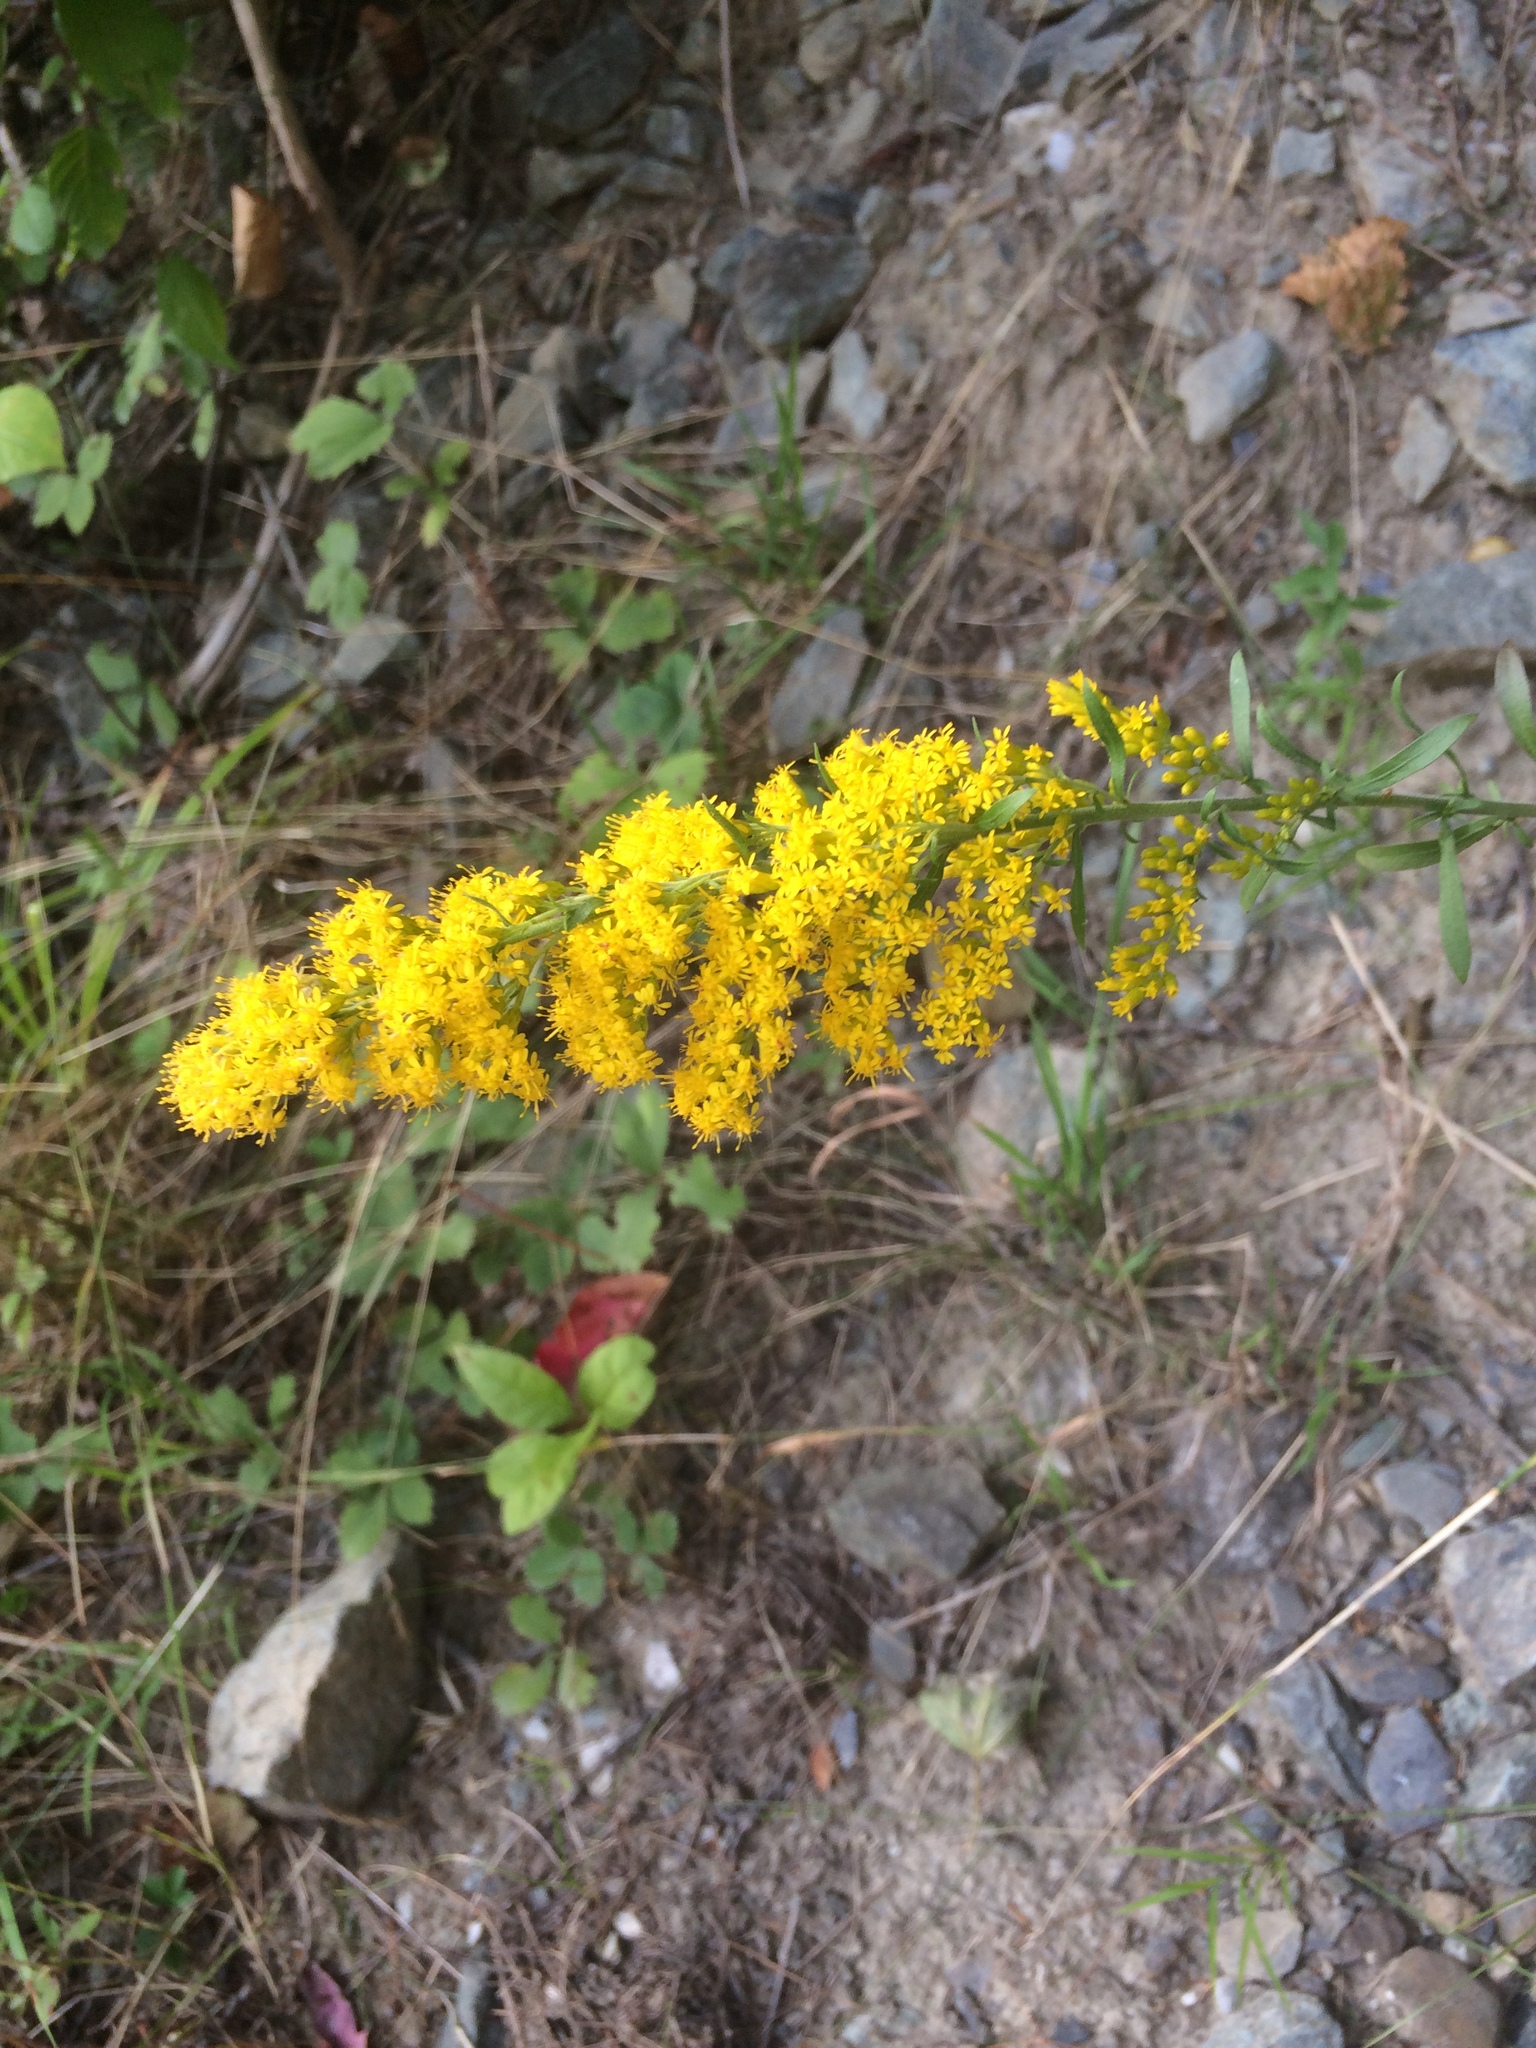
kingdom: Plantae
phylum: Tracheophyta
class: Magnoliopsida
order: Asterales
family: Asteraceae
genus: Solidago
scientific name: Solidago nemoralis
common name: Grey goldenrod
